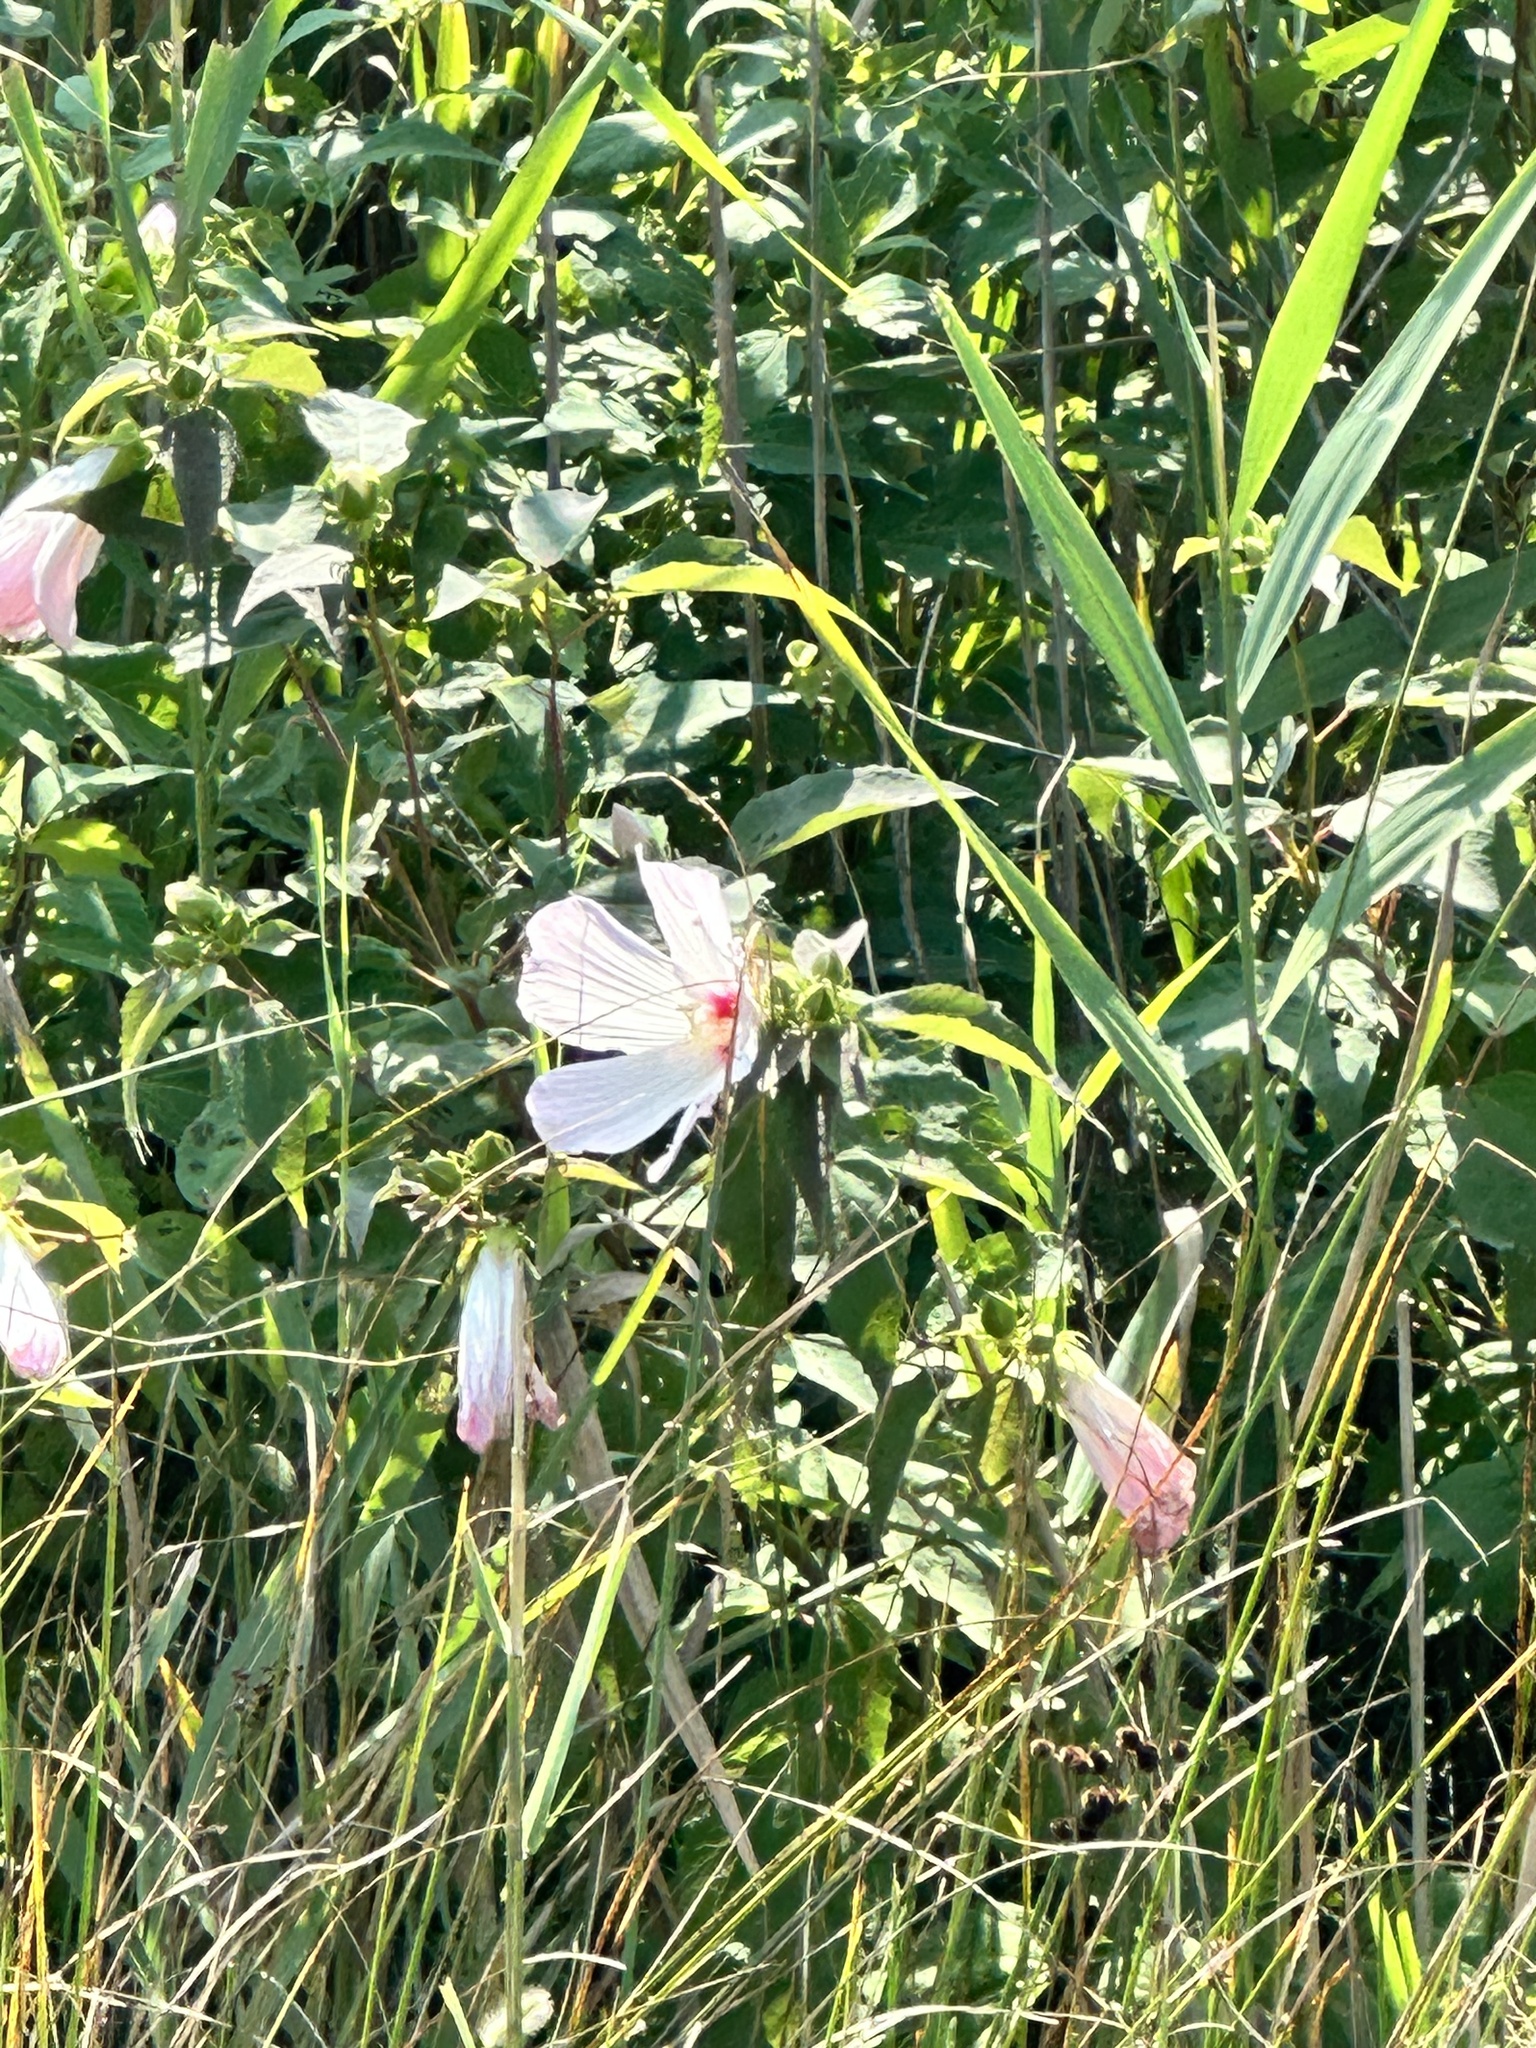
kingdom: Plantae
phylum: Tracheophyta
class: Magnoliopsida
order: Malvales
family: Malvaceae
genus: Hibiscus
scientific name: Hibiscus moscheutos
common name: Common rose-mallow
